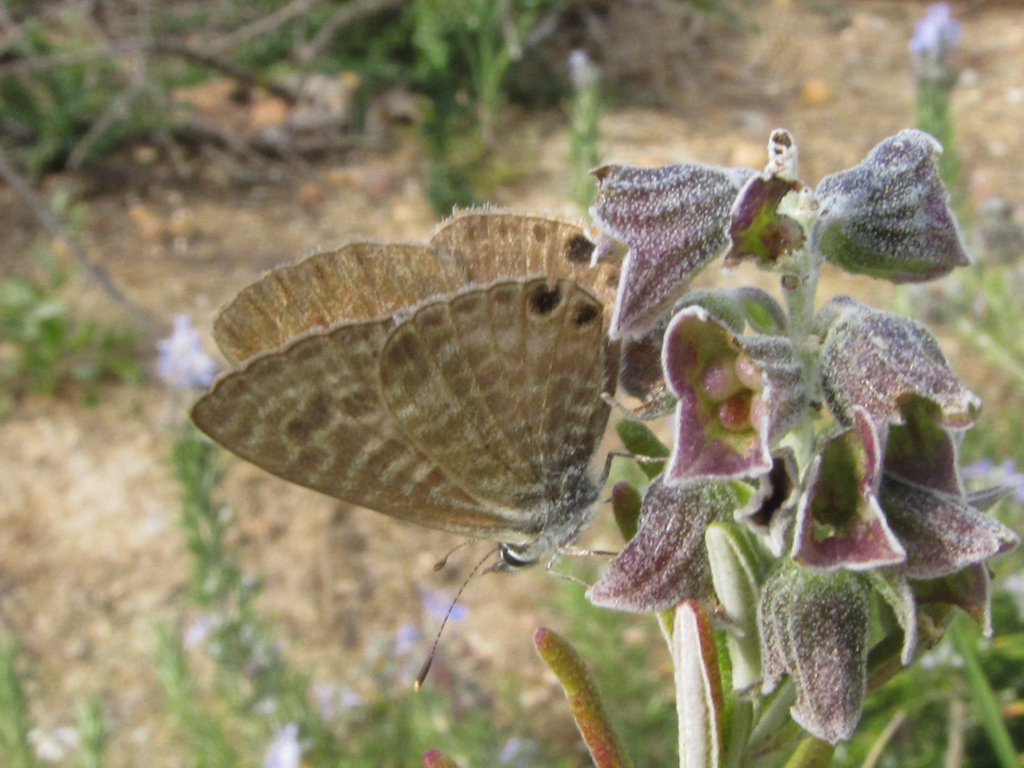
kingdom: Animalia
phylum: Arthropoda
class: Insecta
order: Lepidoptera
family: Lycaenidae
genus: Leptotes
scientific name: Leptotes pirithous
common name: Lang's short-tailed blue
